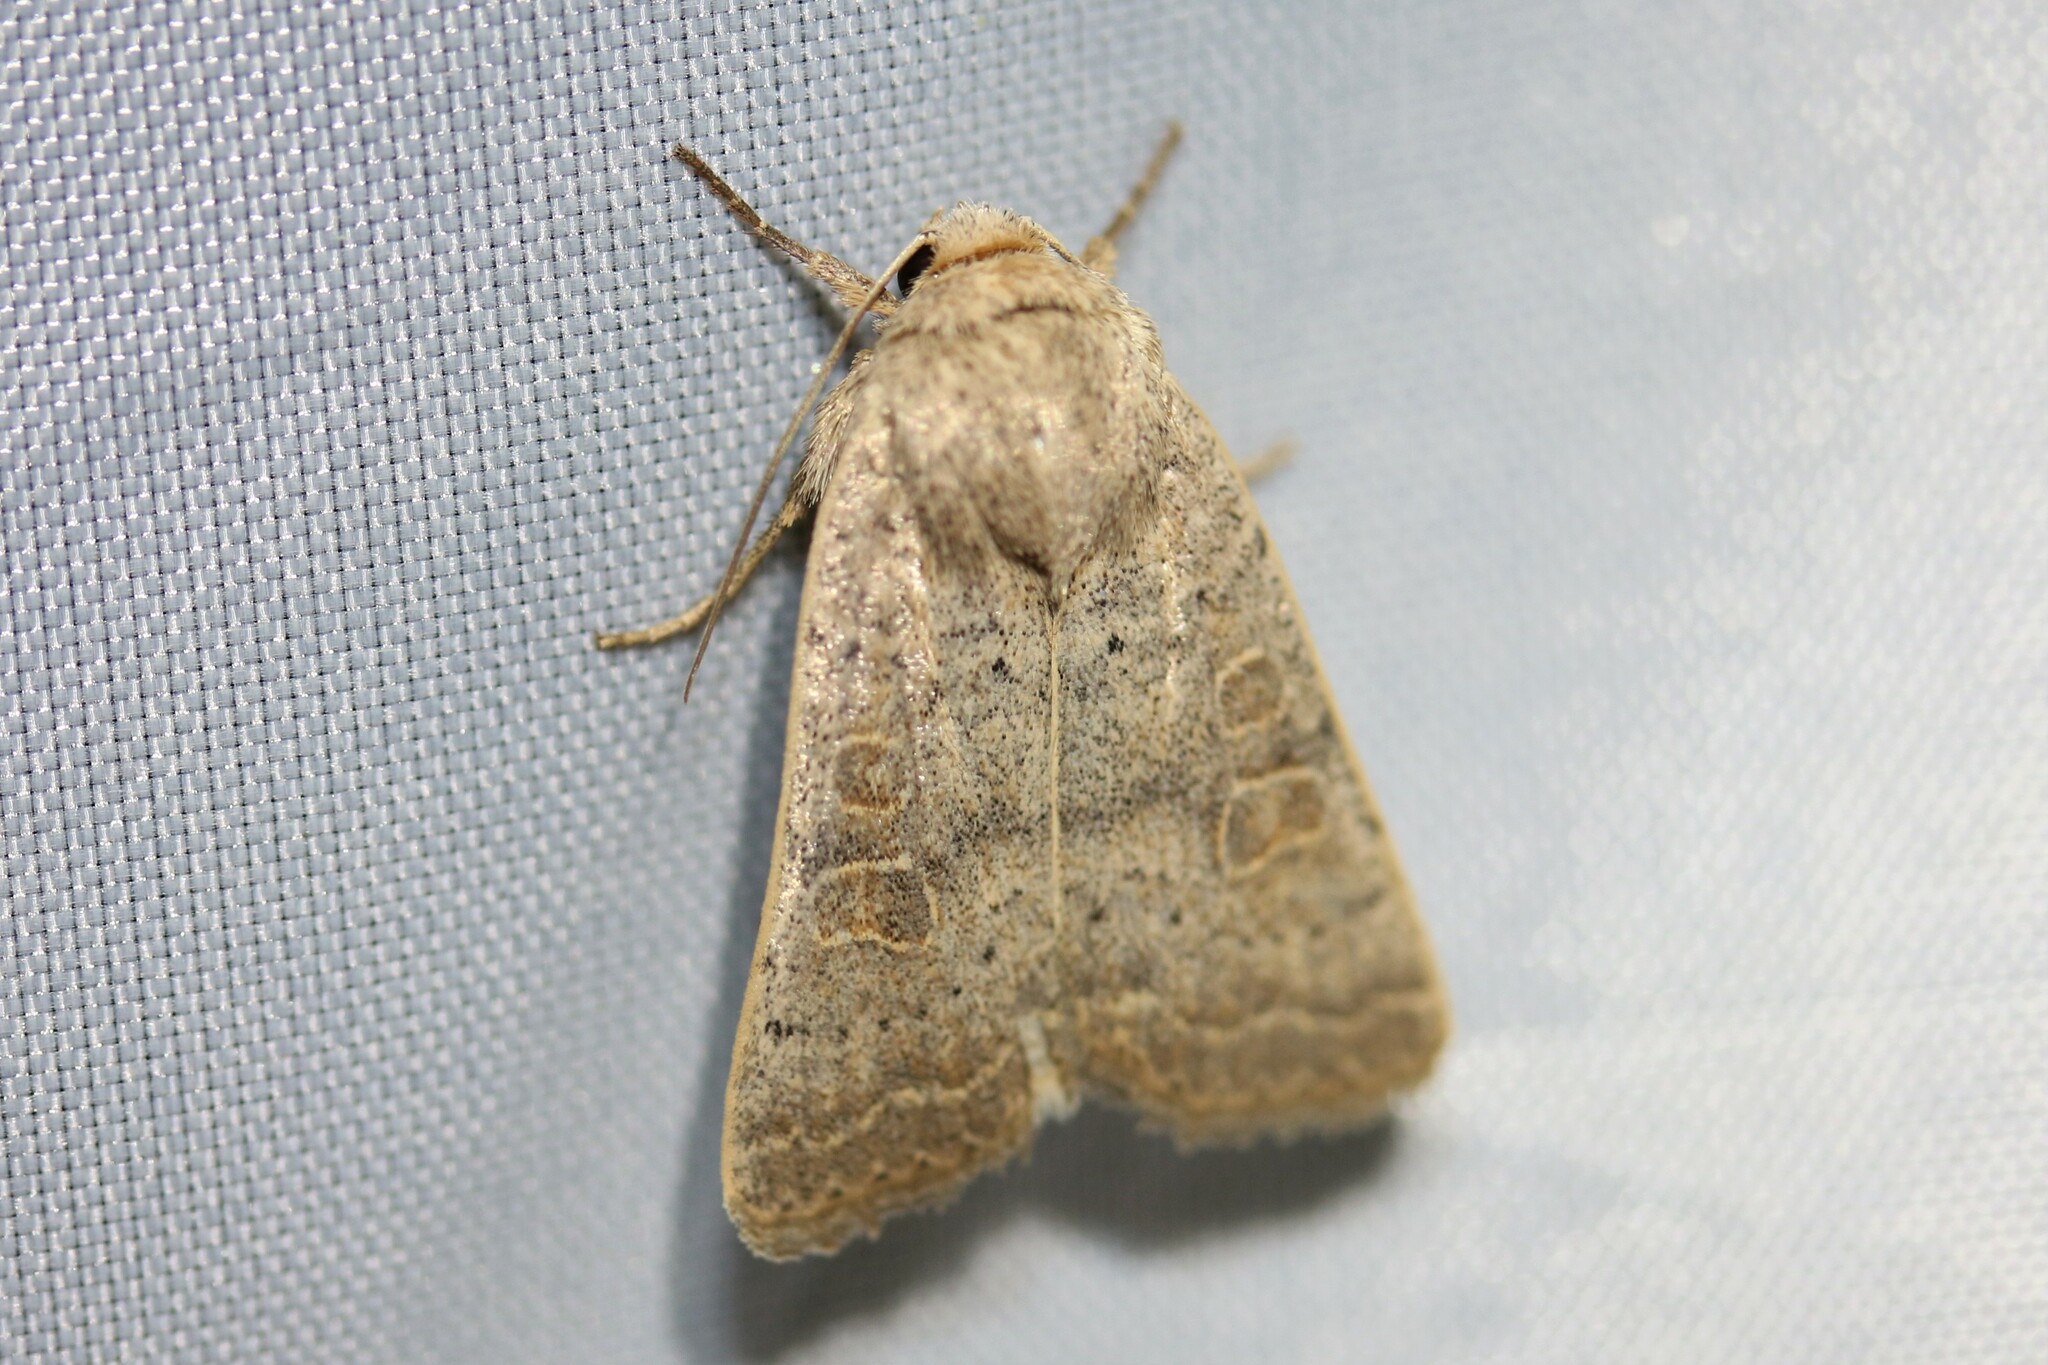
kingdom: Animalia
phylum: Arthropoda
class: Insecta
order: Lepidoptera
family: Noctuidae
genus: Hoplodrina
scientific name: Hoplodrina ambigua
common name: Vine's rustic
